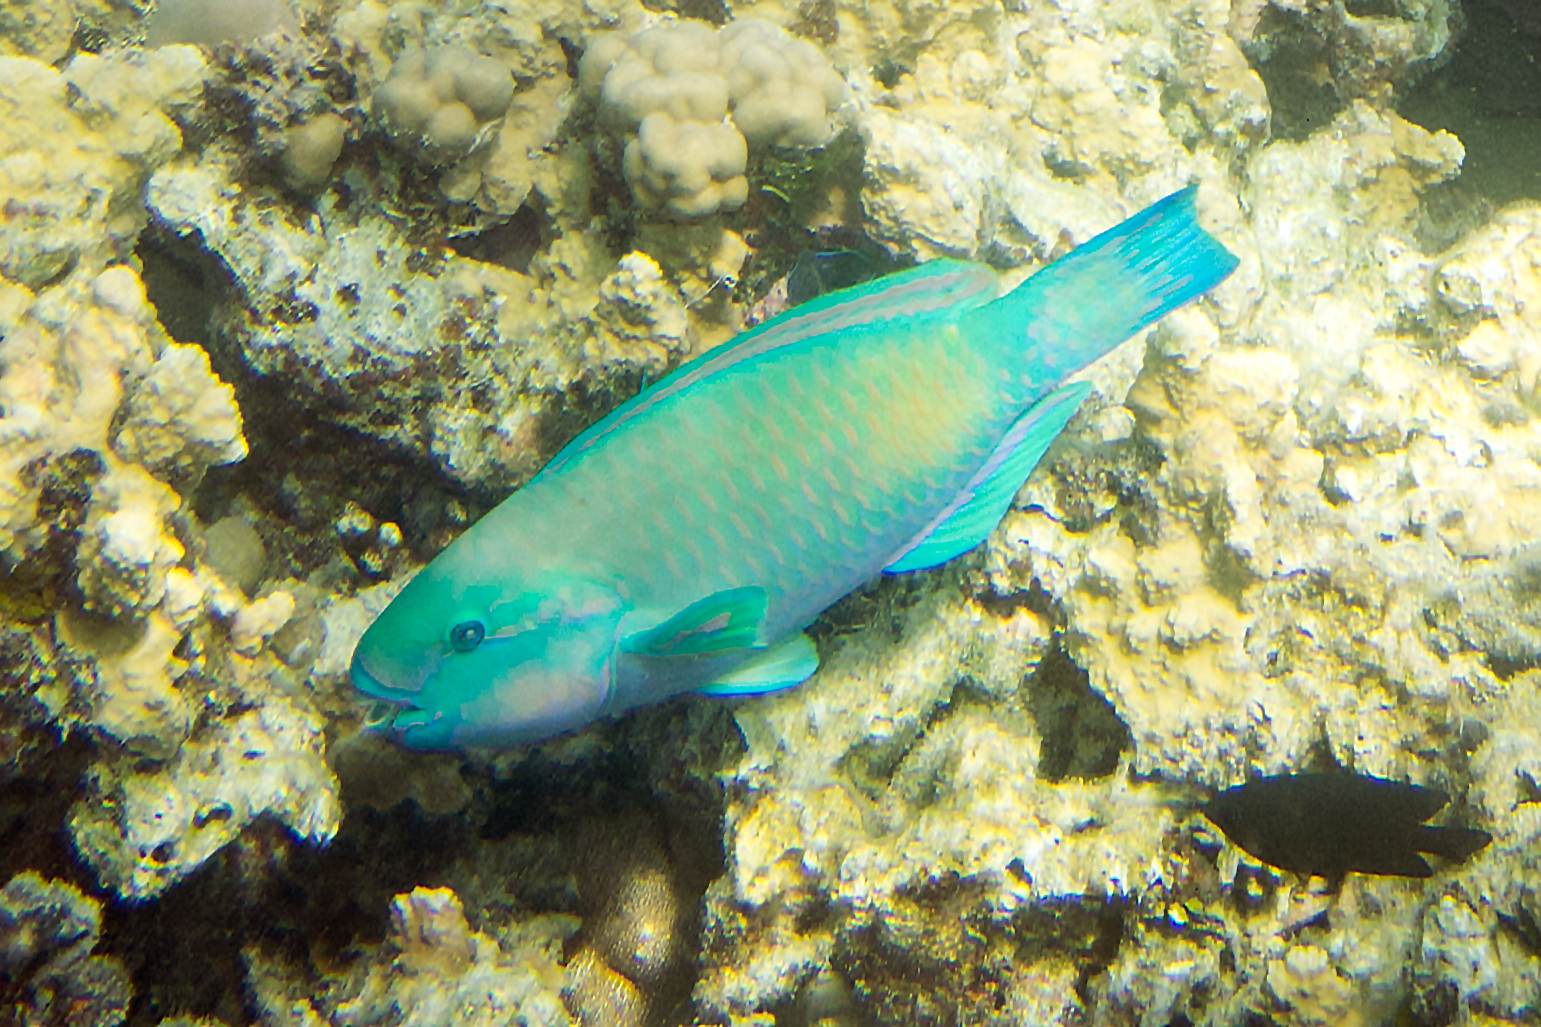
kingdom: Animalia
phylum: Chordata
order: Perciformes
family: Scaridae
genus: Chlorurus
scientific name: Chlorurus spilurus
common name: Bullethead parrotfish
